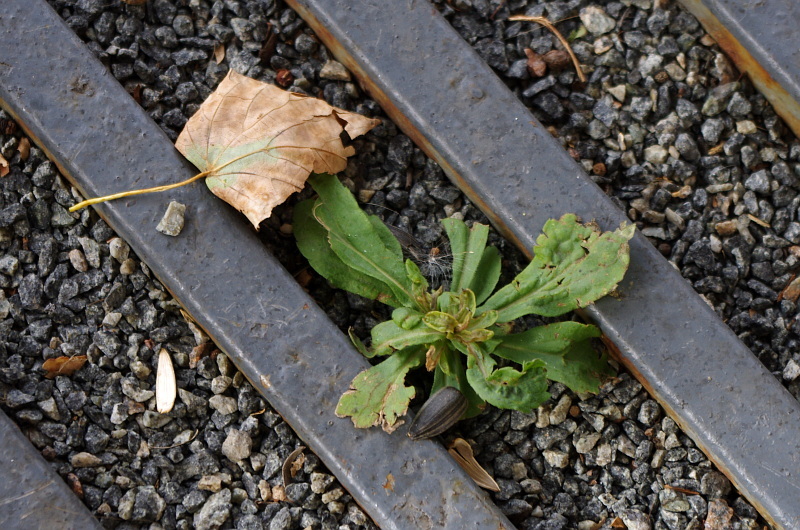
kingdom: Plantae
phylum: Tracheophyta
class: Magnoliopsida
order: Myrtales
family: Onagraceae
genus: Chamaenerion
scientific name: Chamaenerion angustifolium
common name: Fireweed
